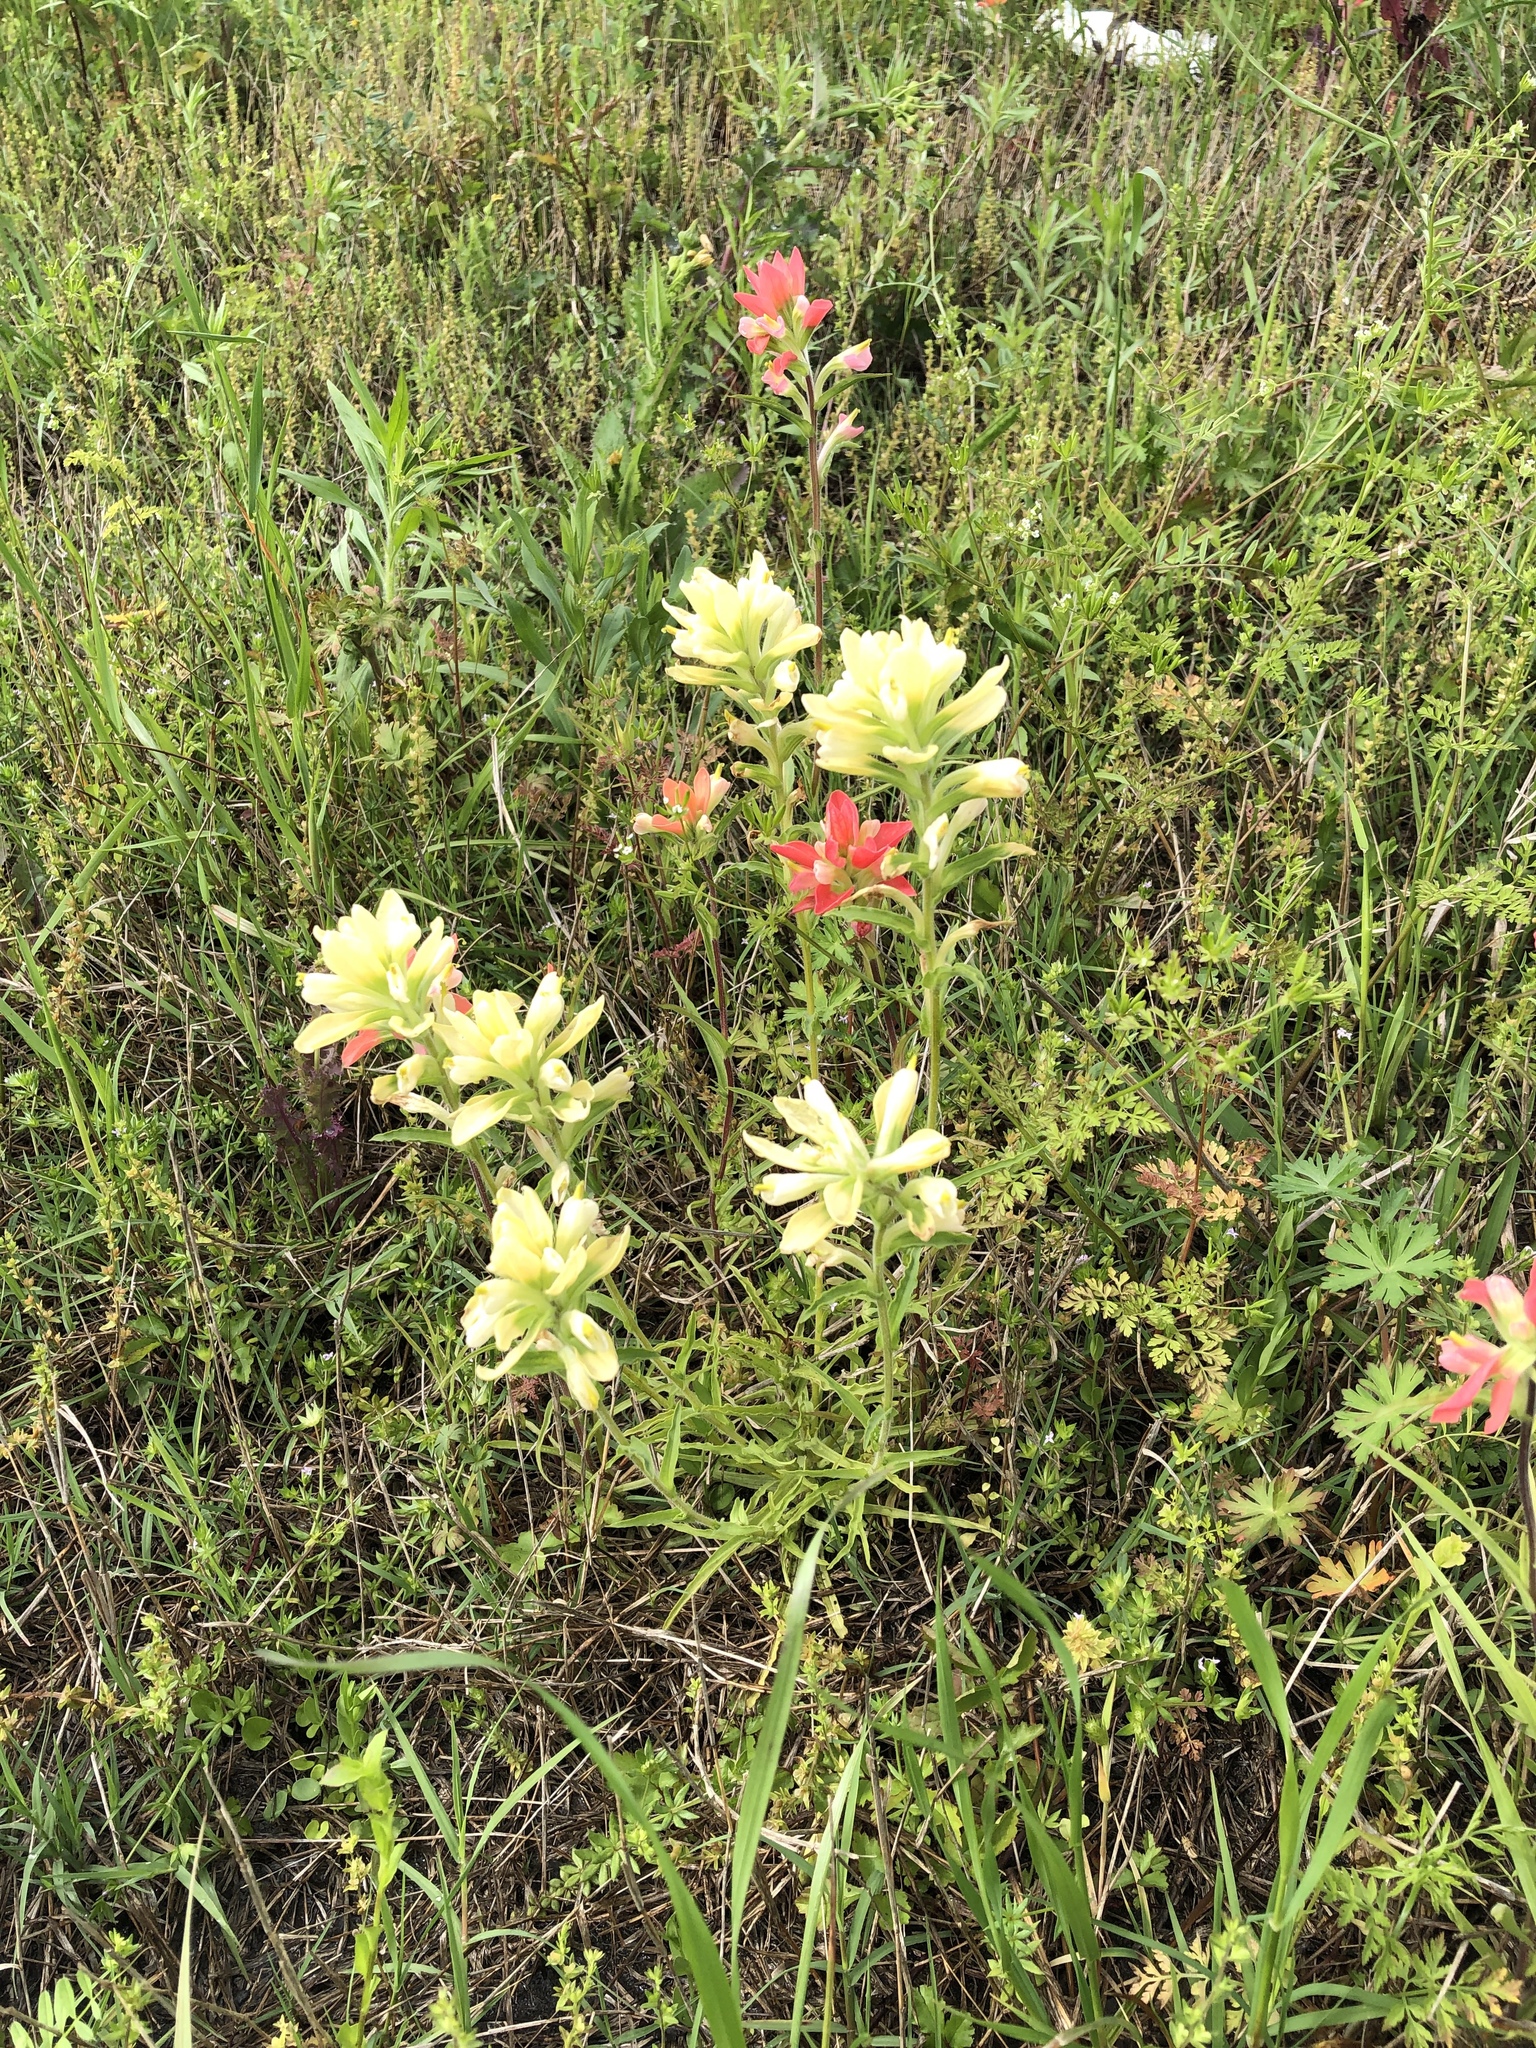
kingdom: Plantae
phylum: Tracheophyta
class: Magnoliopsida
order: Lamiales
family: Orobanchaceae
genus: Castilleja
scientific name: Castilleja indivisa
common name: Texas paintbrush
